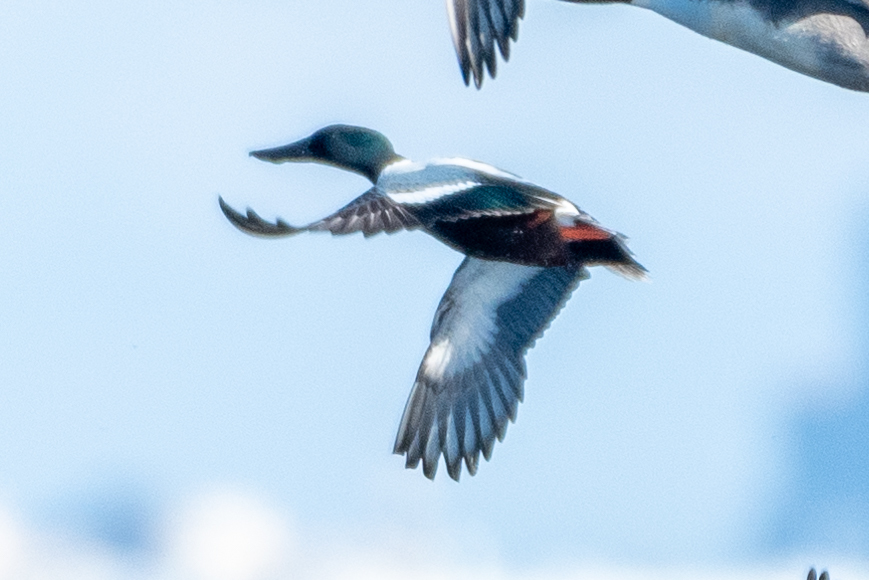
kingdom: Animalia
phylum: Chordata
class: Aves
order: Anseriformes
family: Anatidae
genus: Spatula
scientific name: Spatula clypeata
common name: Northern shoveler
